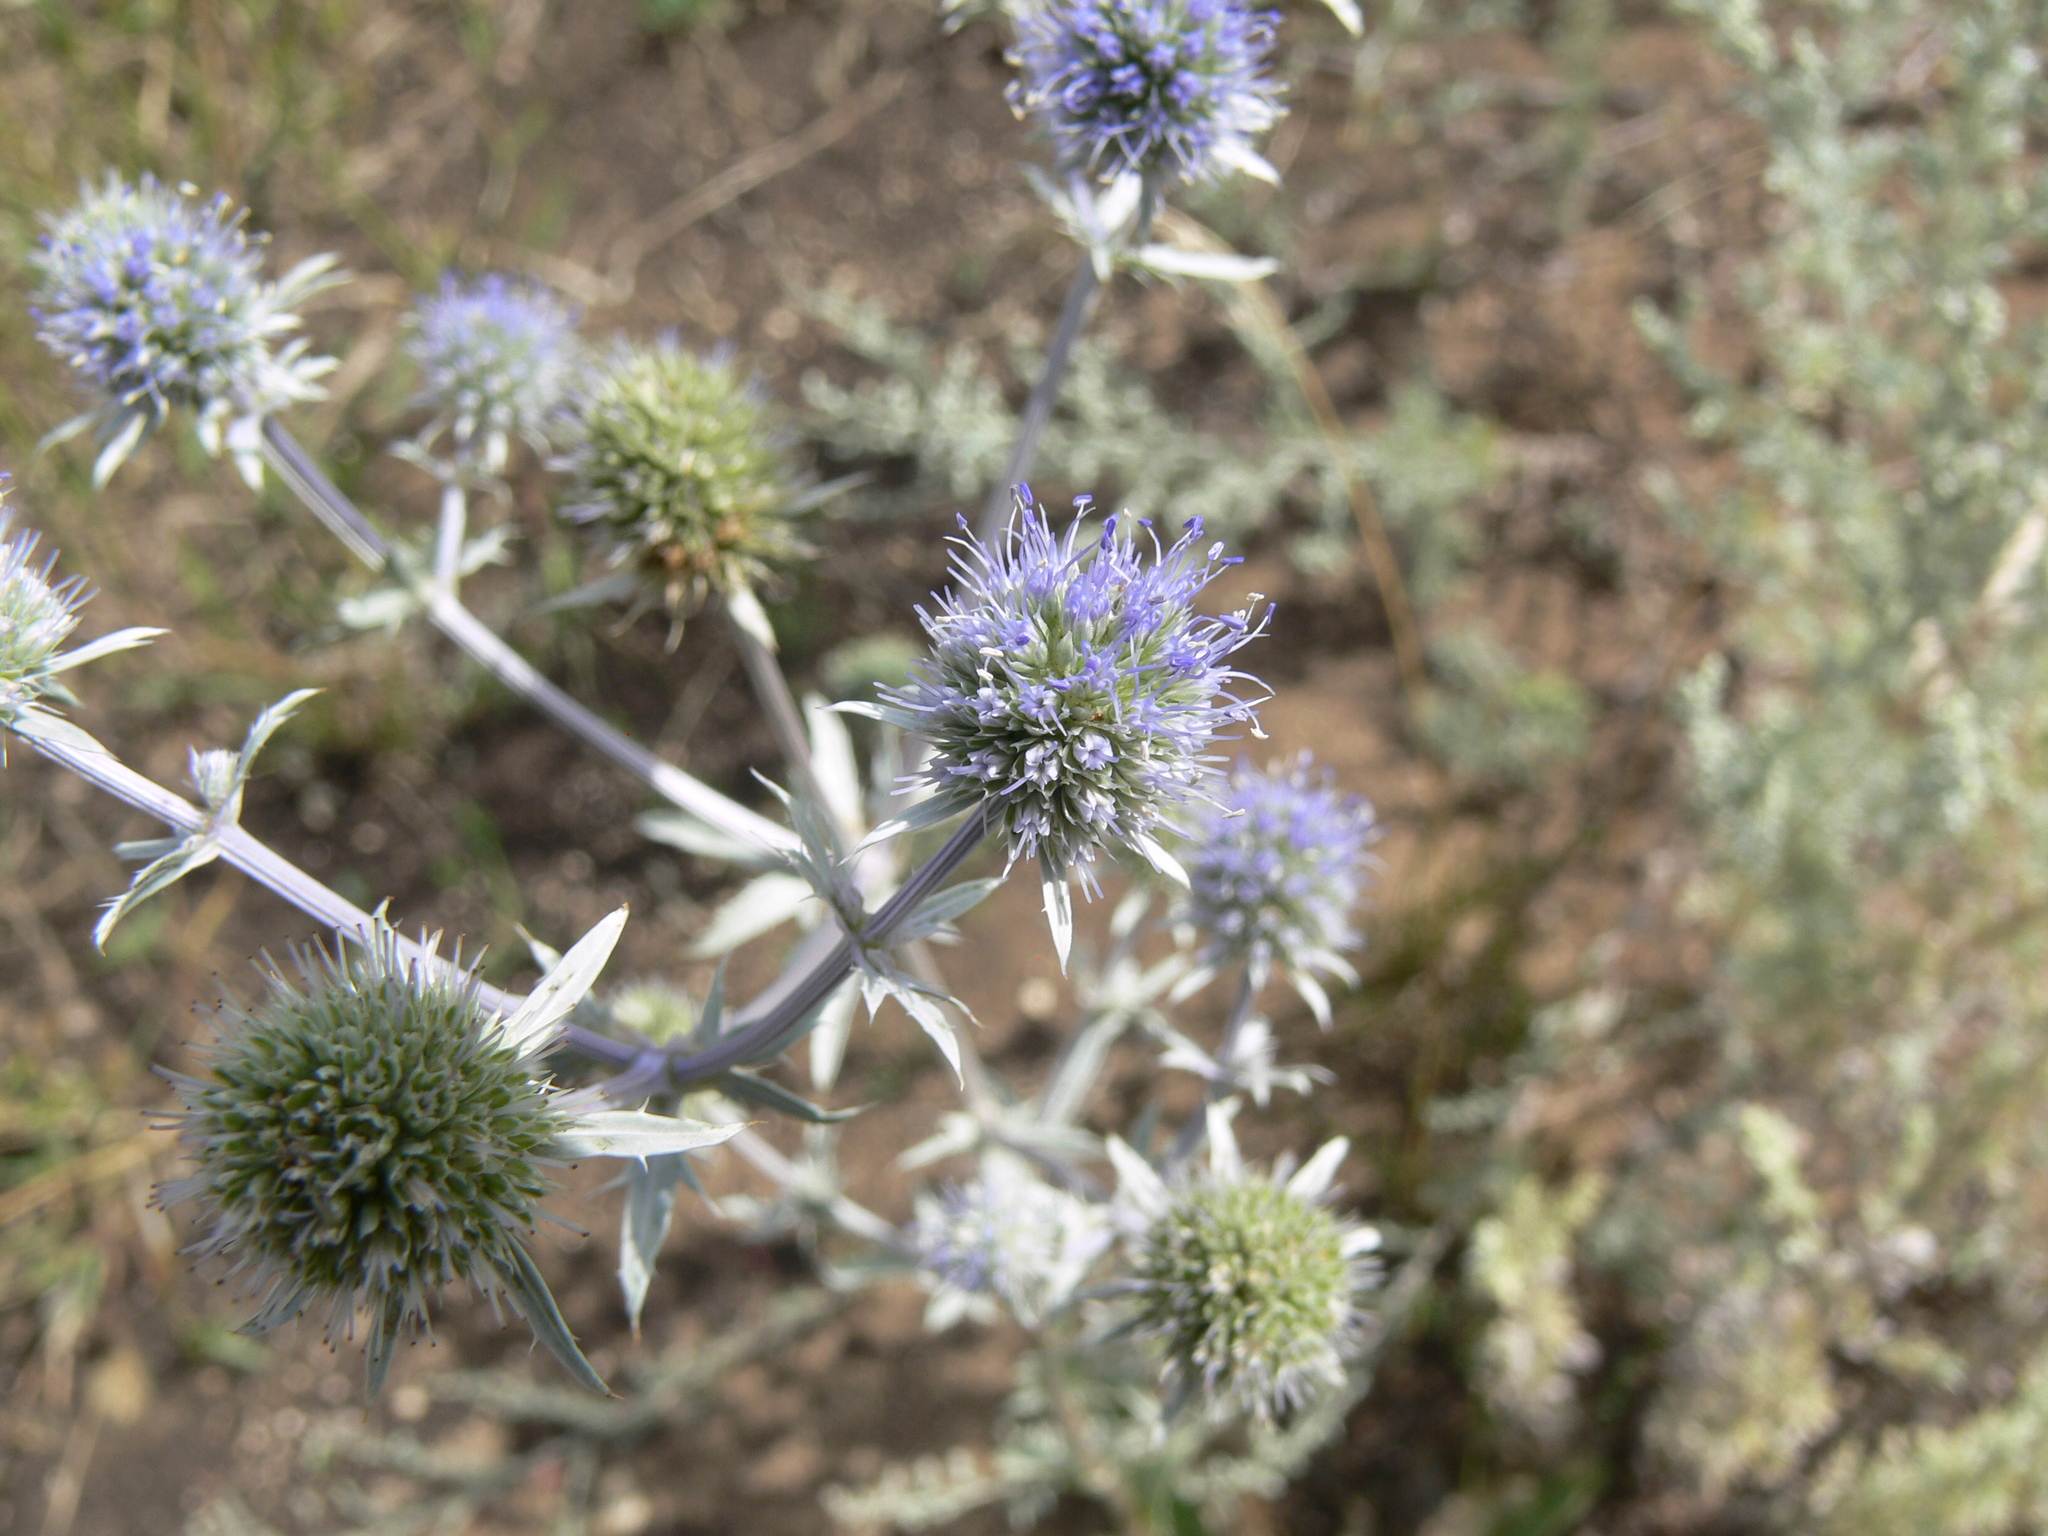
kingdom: Plantae
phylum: Tracheophyta
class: Magnoliopsida
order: Apiales
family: Apiaceae
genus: Eryngium
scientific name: Eryngium planum
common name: Blue eryngo
